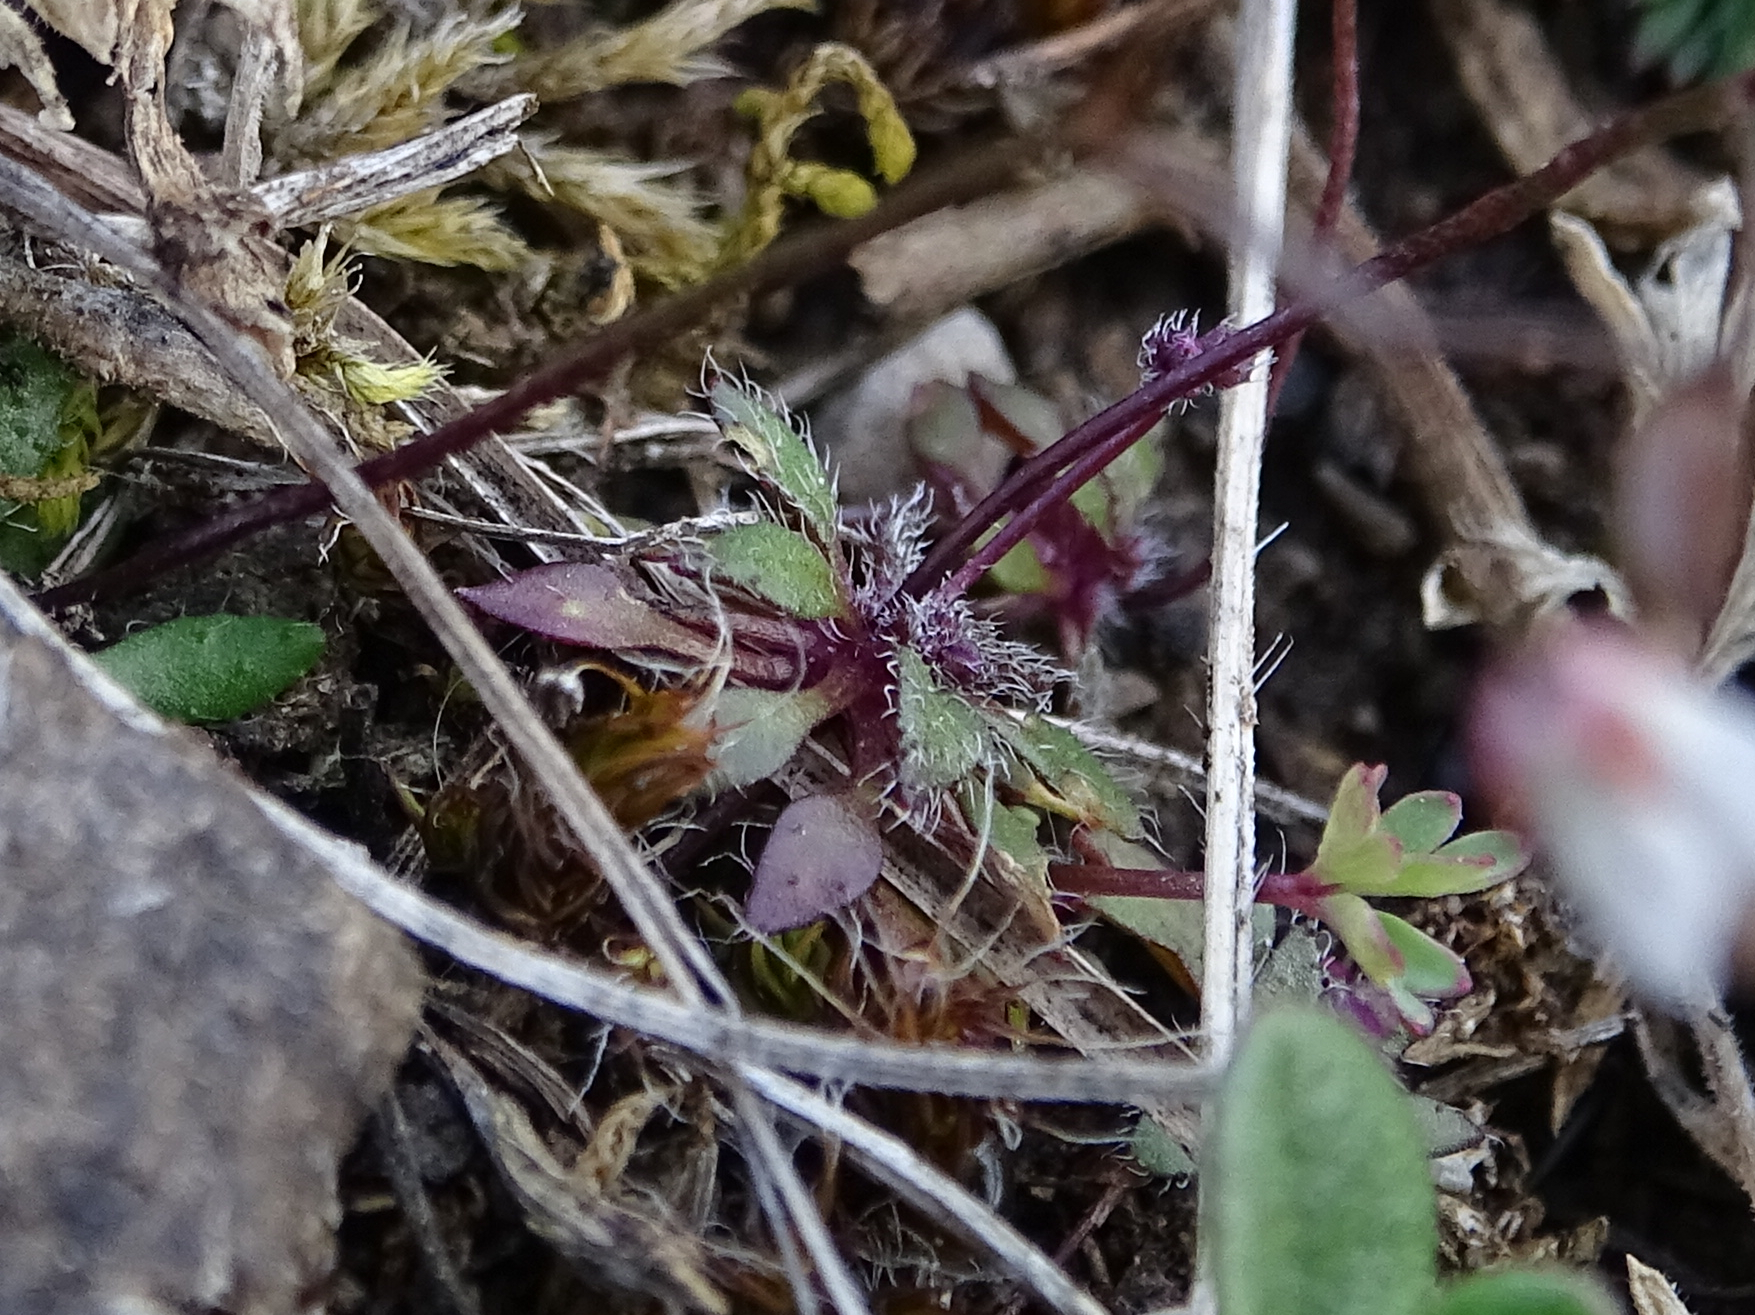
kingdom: Plantae
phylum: Tracheophyta
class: Magnoliopsida
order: Brassicales
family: Brassicaceae
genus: Draba
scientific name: Draba verna
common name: Spring draba
